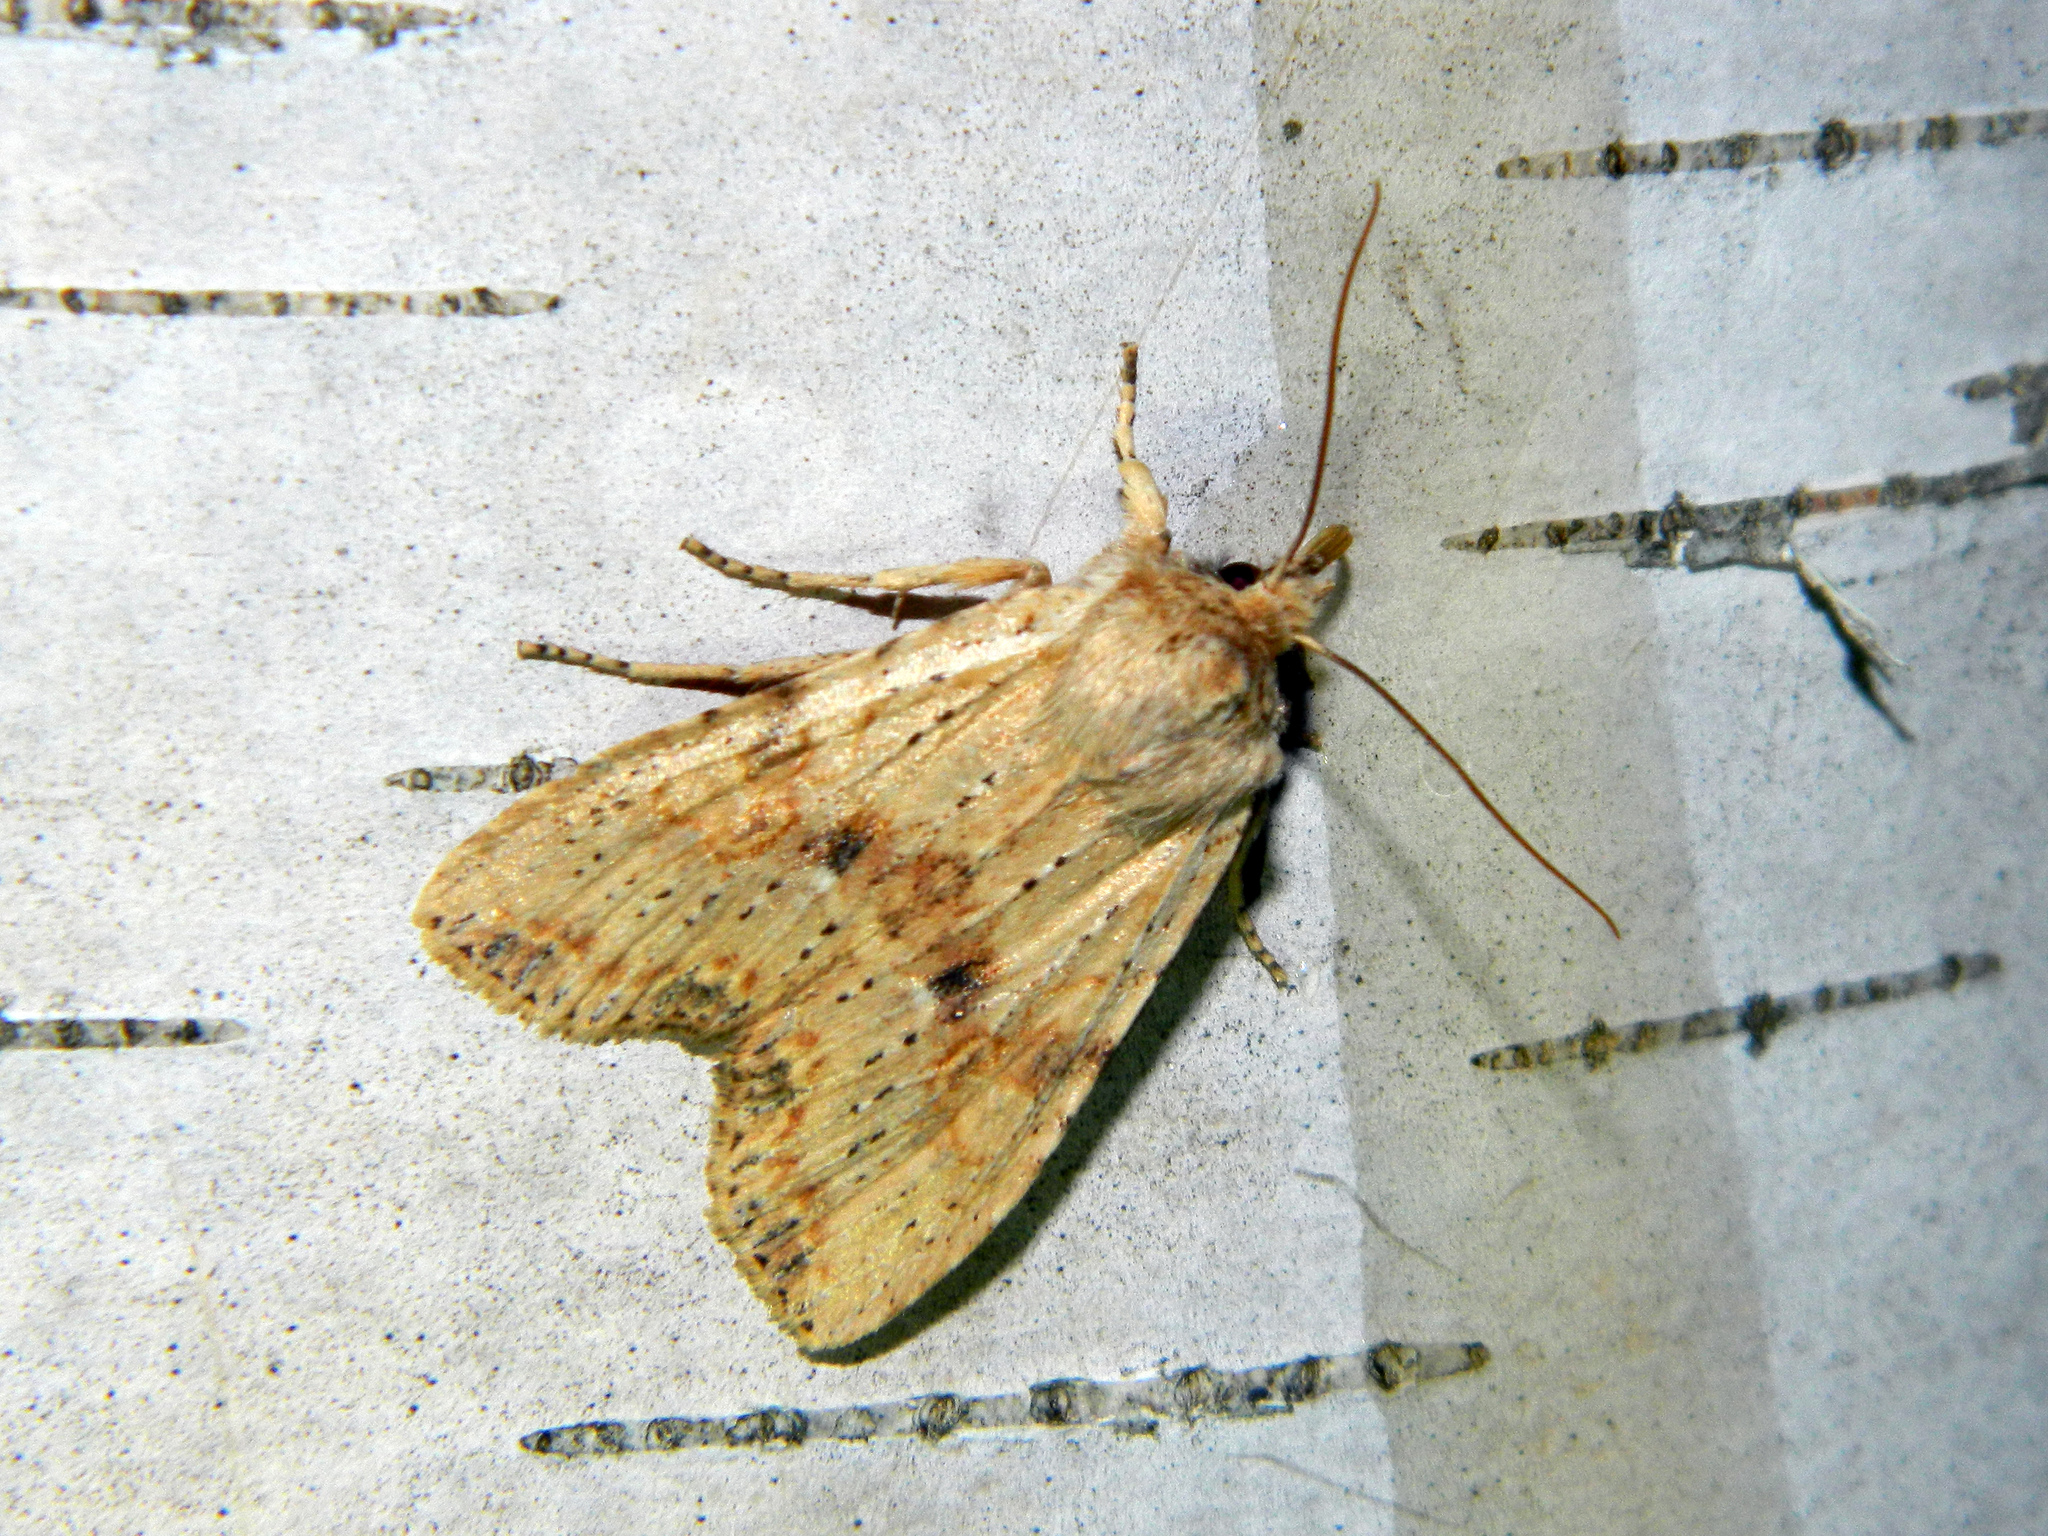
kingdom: Animalia
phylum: Arthropoda
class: Insecta
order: Lepidoptera
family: Noctuidae
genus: Lithophane
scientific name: Lithophane innominata
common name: Nameless pinion moth
